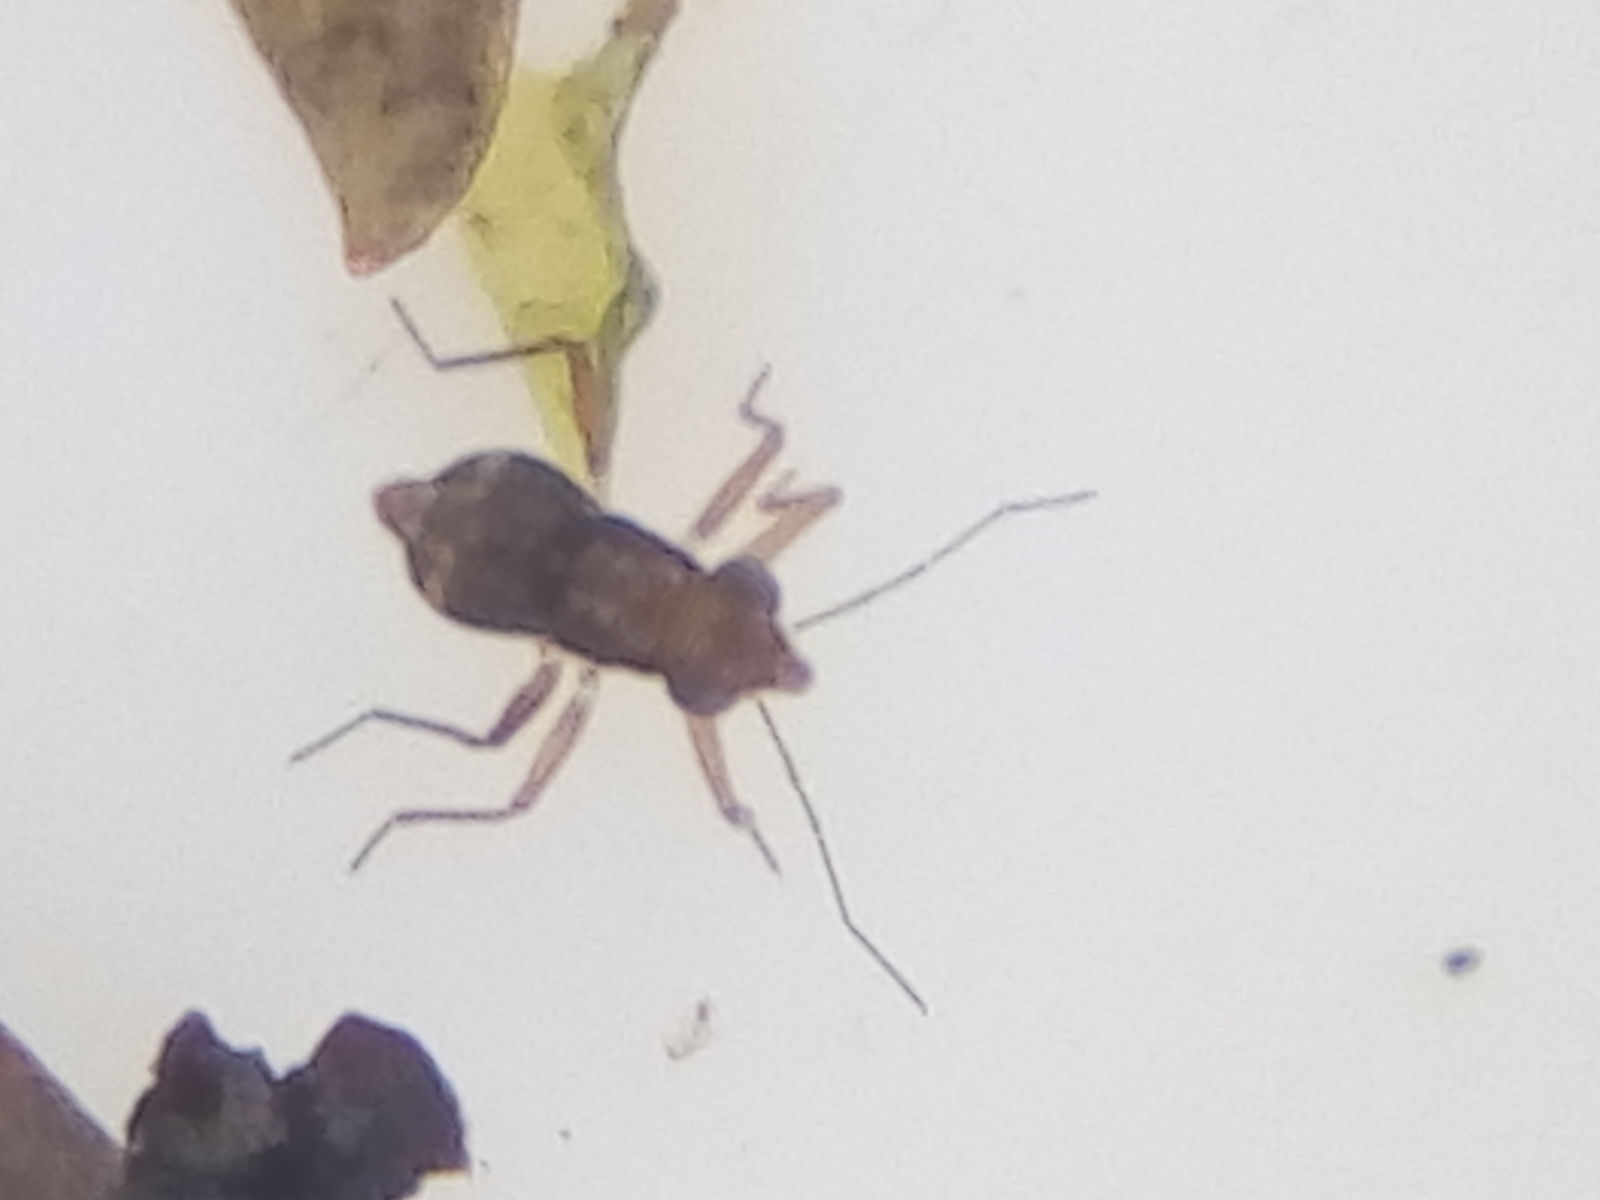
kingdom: Animalia
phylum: Arthropoda
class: Insecta
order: Hemiptera
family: Mesoveliidae
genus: Mniovelia
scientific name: Mniovelia kuscheli
